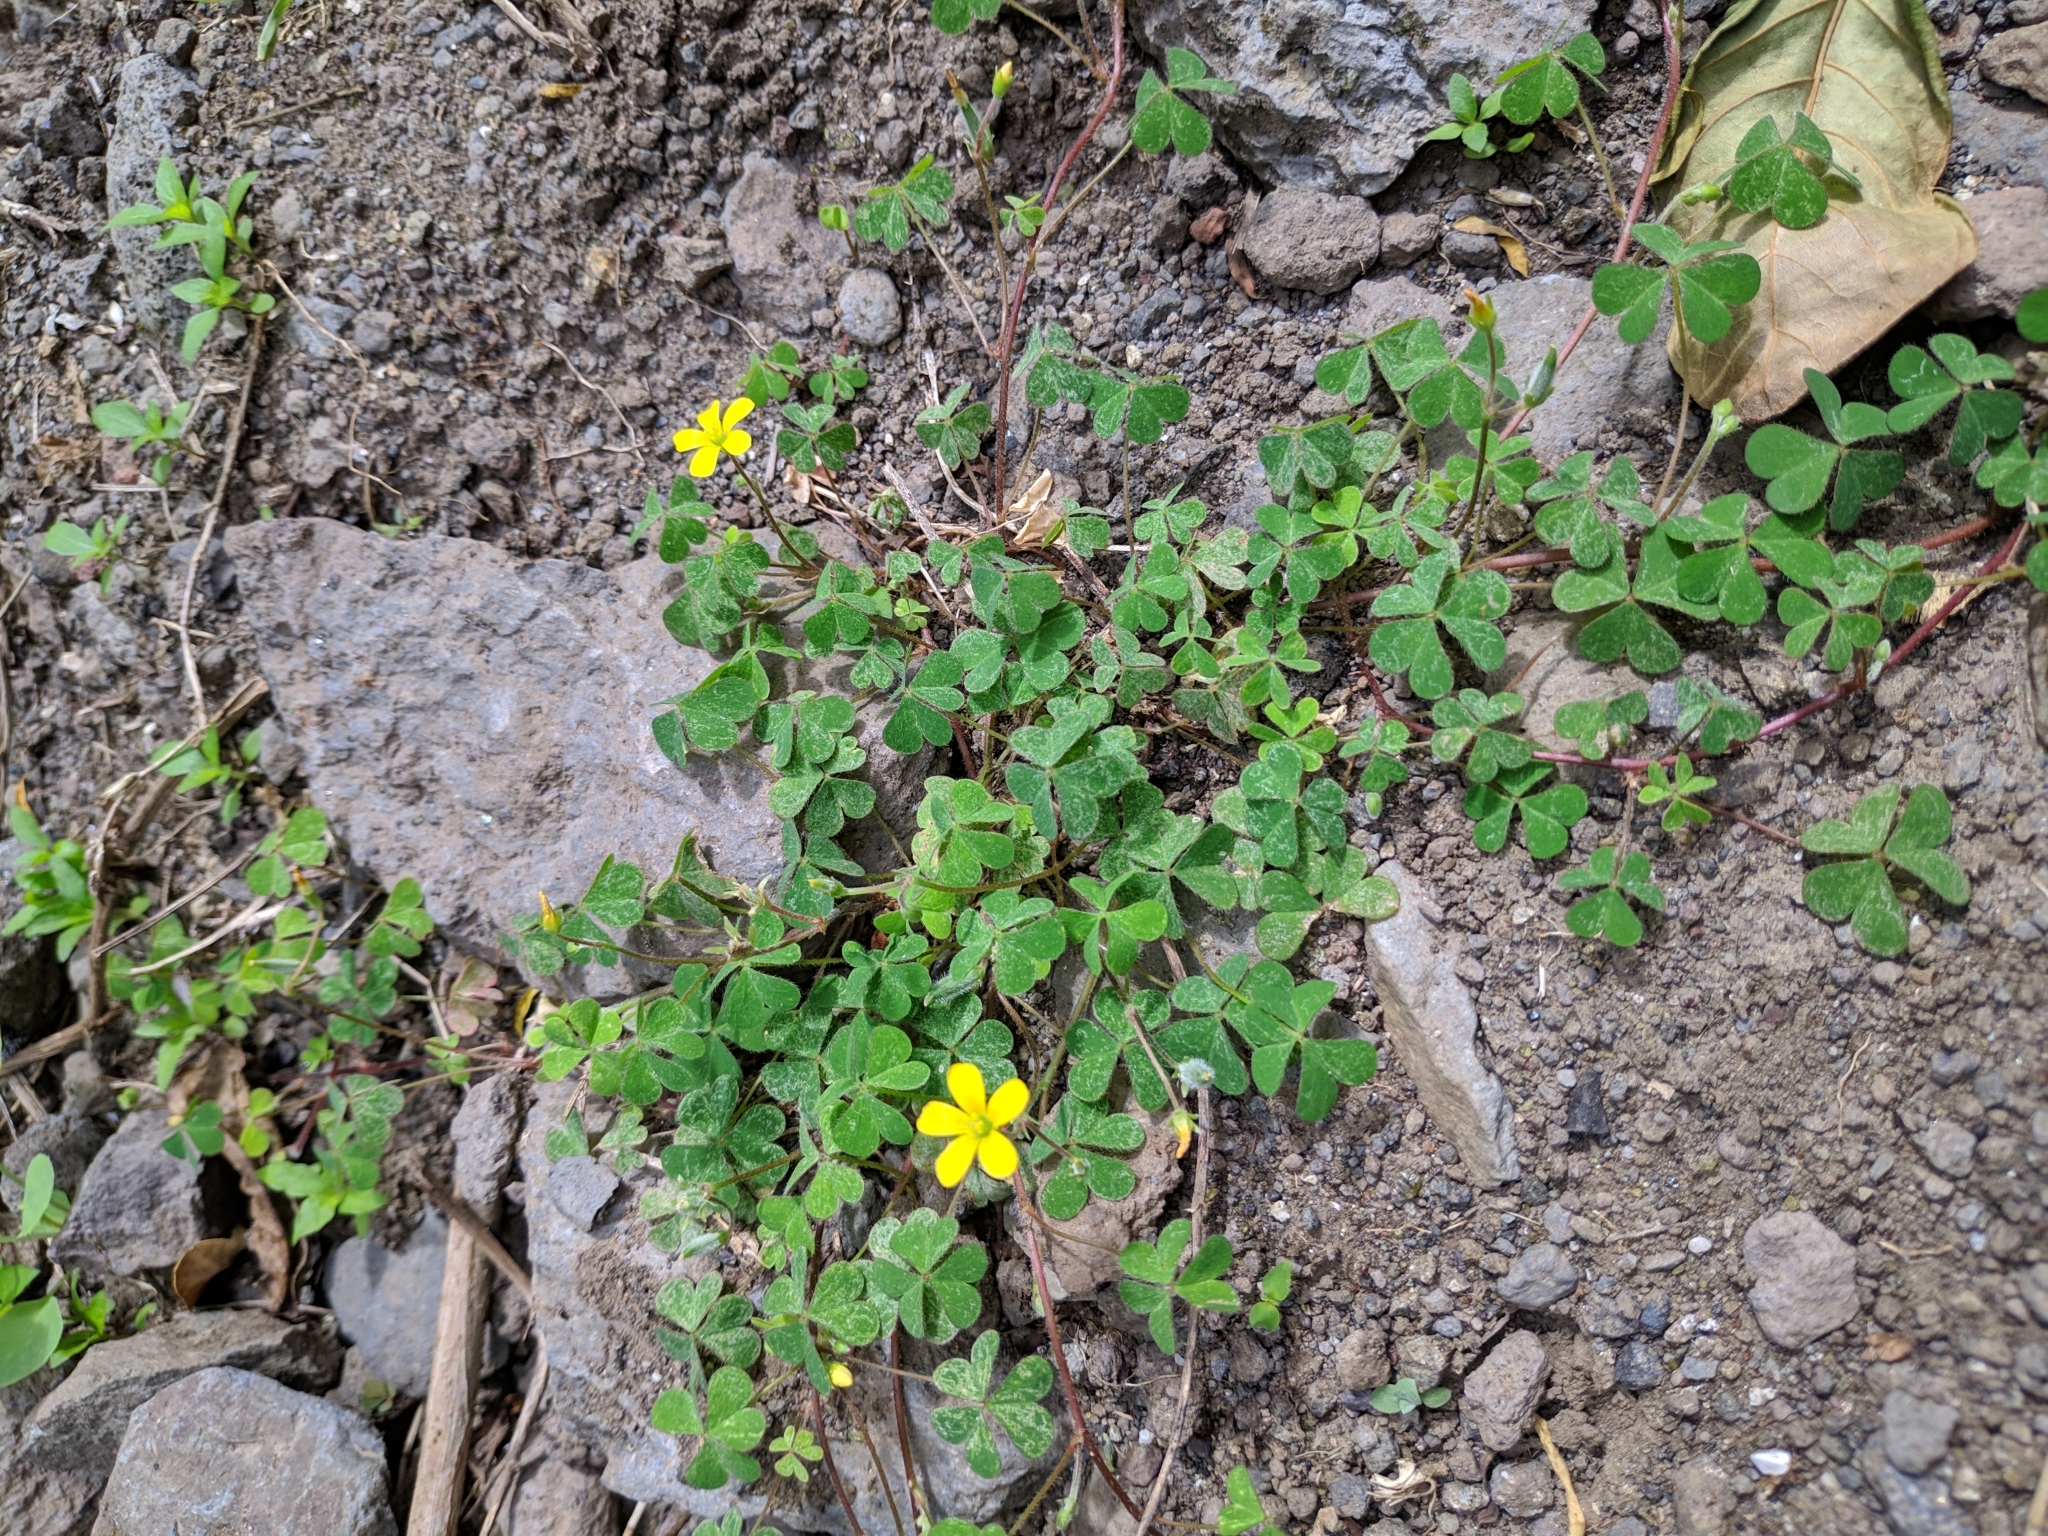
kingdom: Plantae
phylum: Tracheophyta
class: Magnoliopsida
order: Oxalidales
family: Oxalidaceae
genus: Oxalis
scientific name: Oxalis corniculata
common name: Procumbent yellow-sorrel
